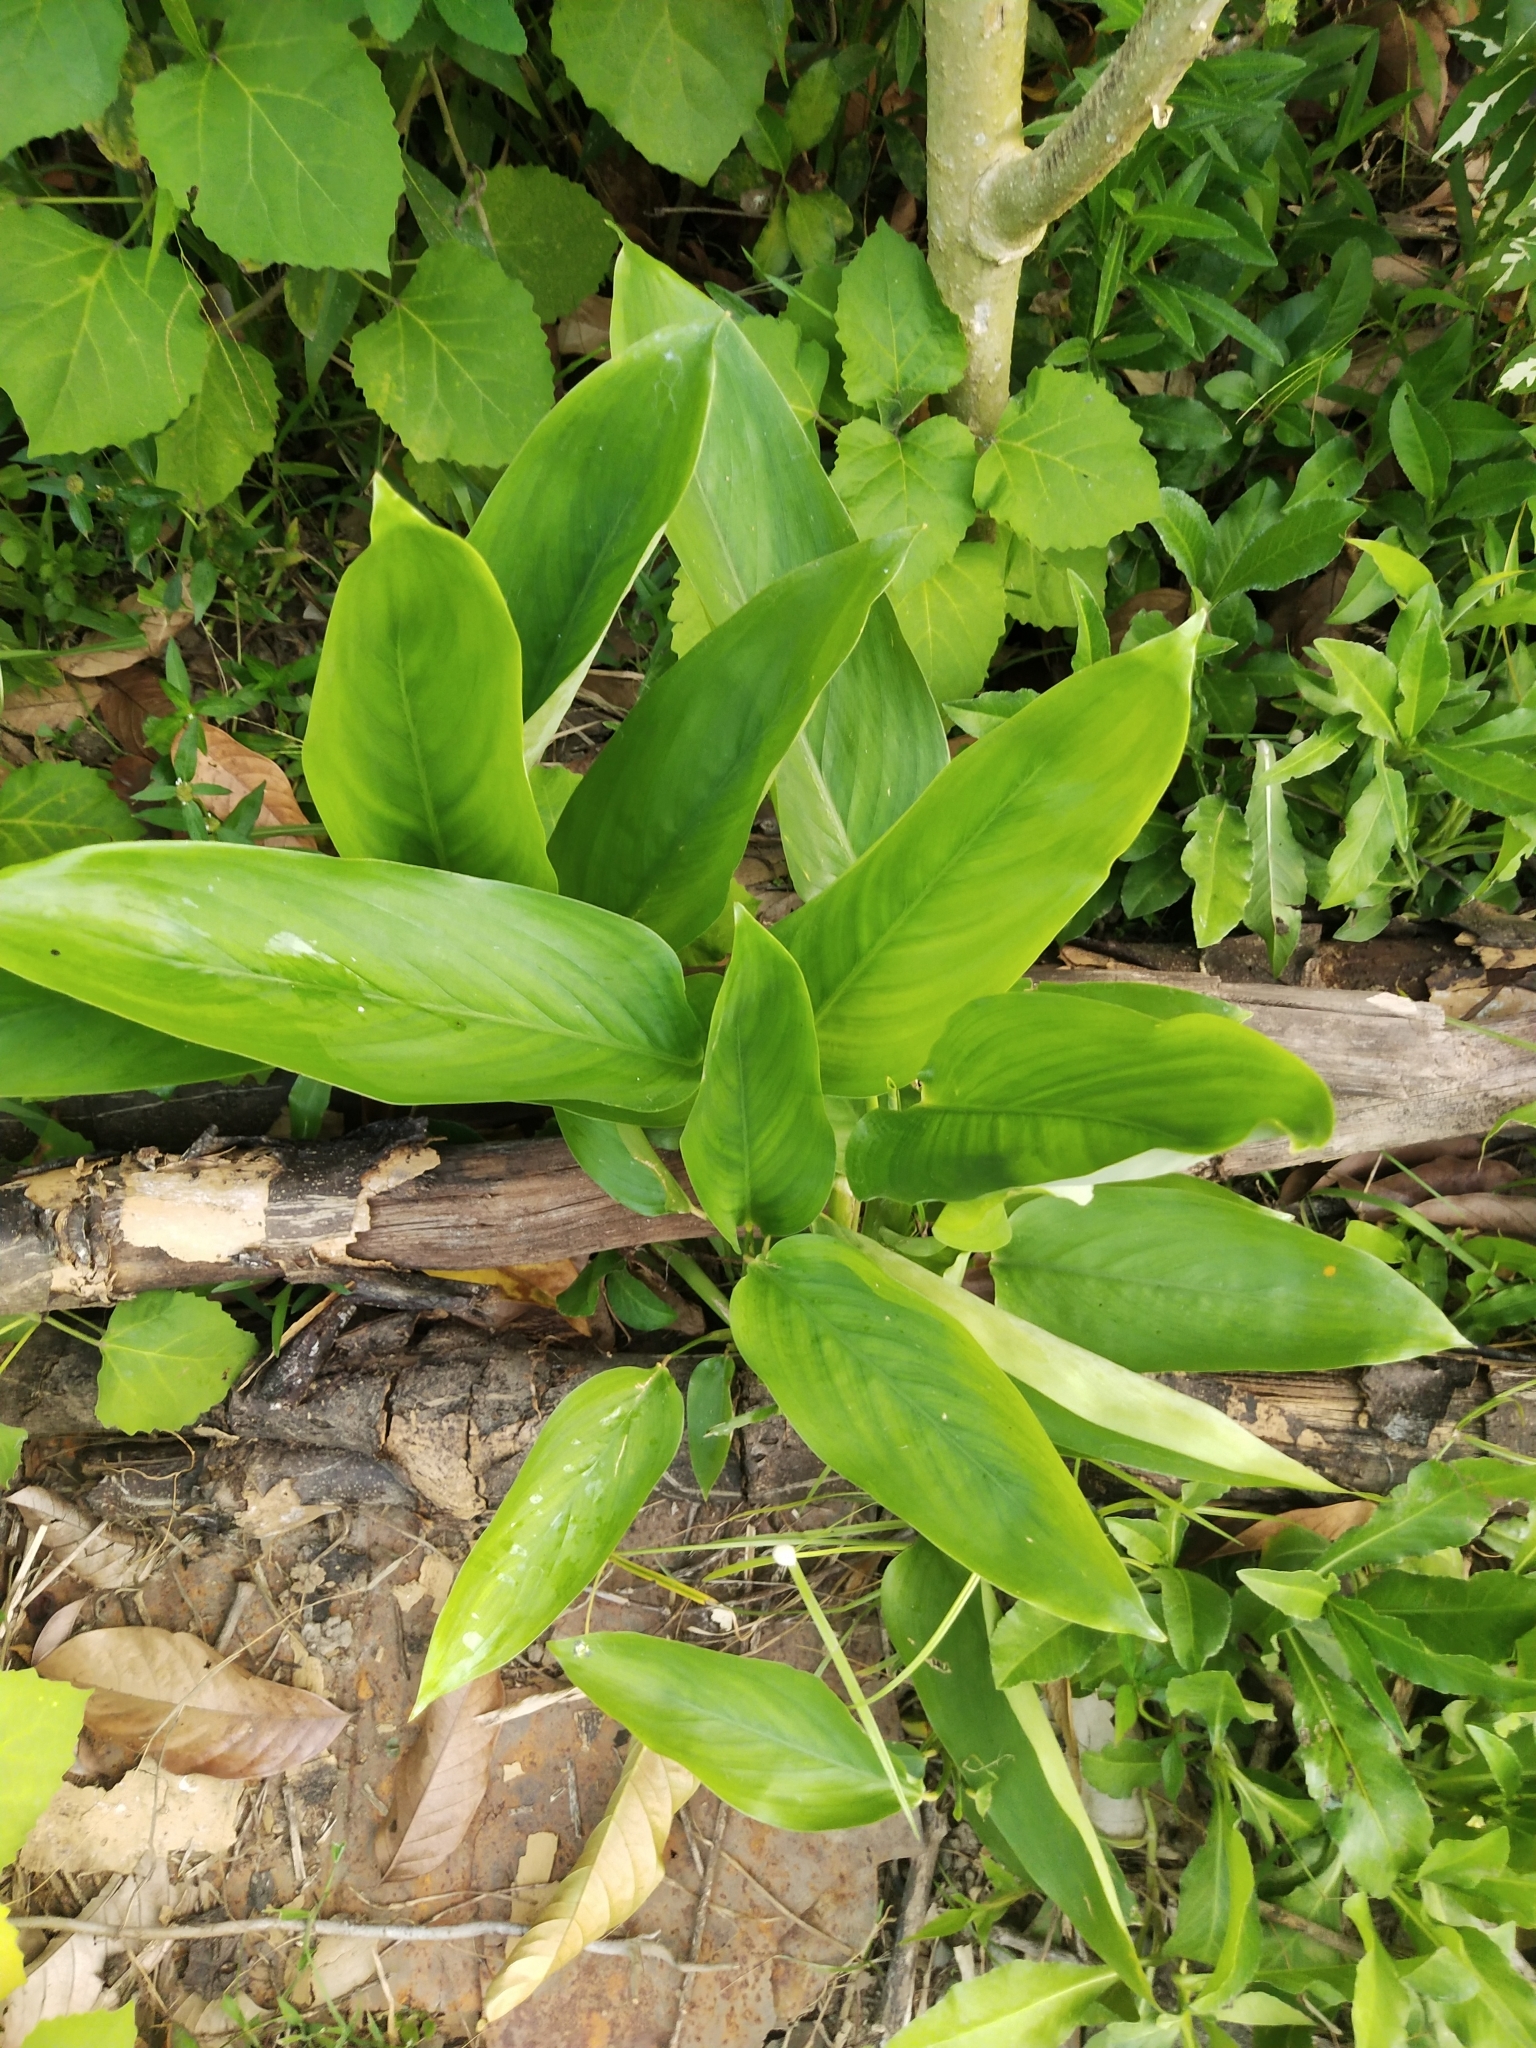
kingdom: Plantae
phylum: Tracheophyta
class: Liliopsida
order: Zingiberales
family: Marantaceae
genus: Maranta
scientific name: Maranta arundinacea
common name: Arrowroot
